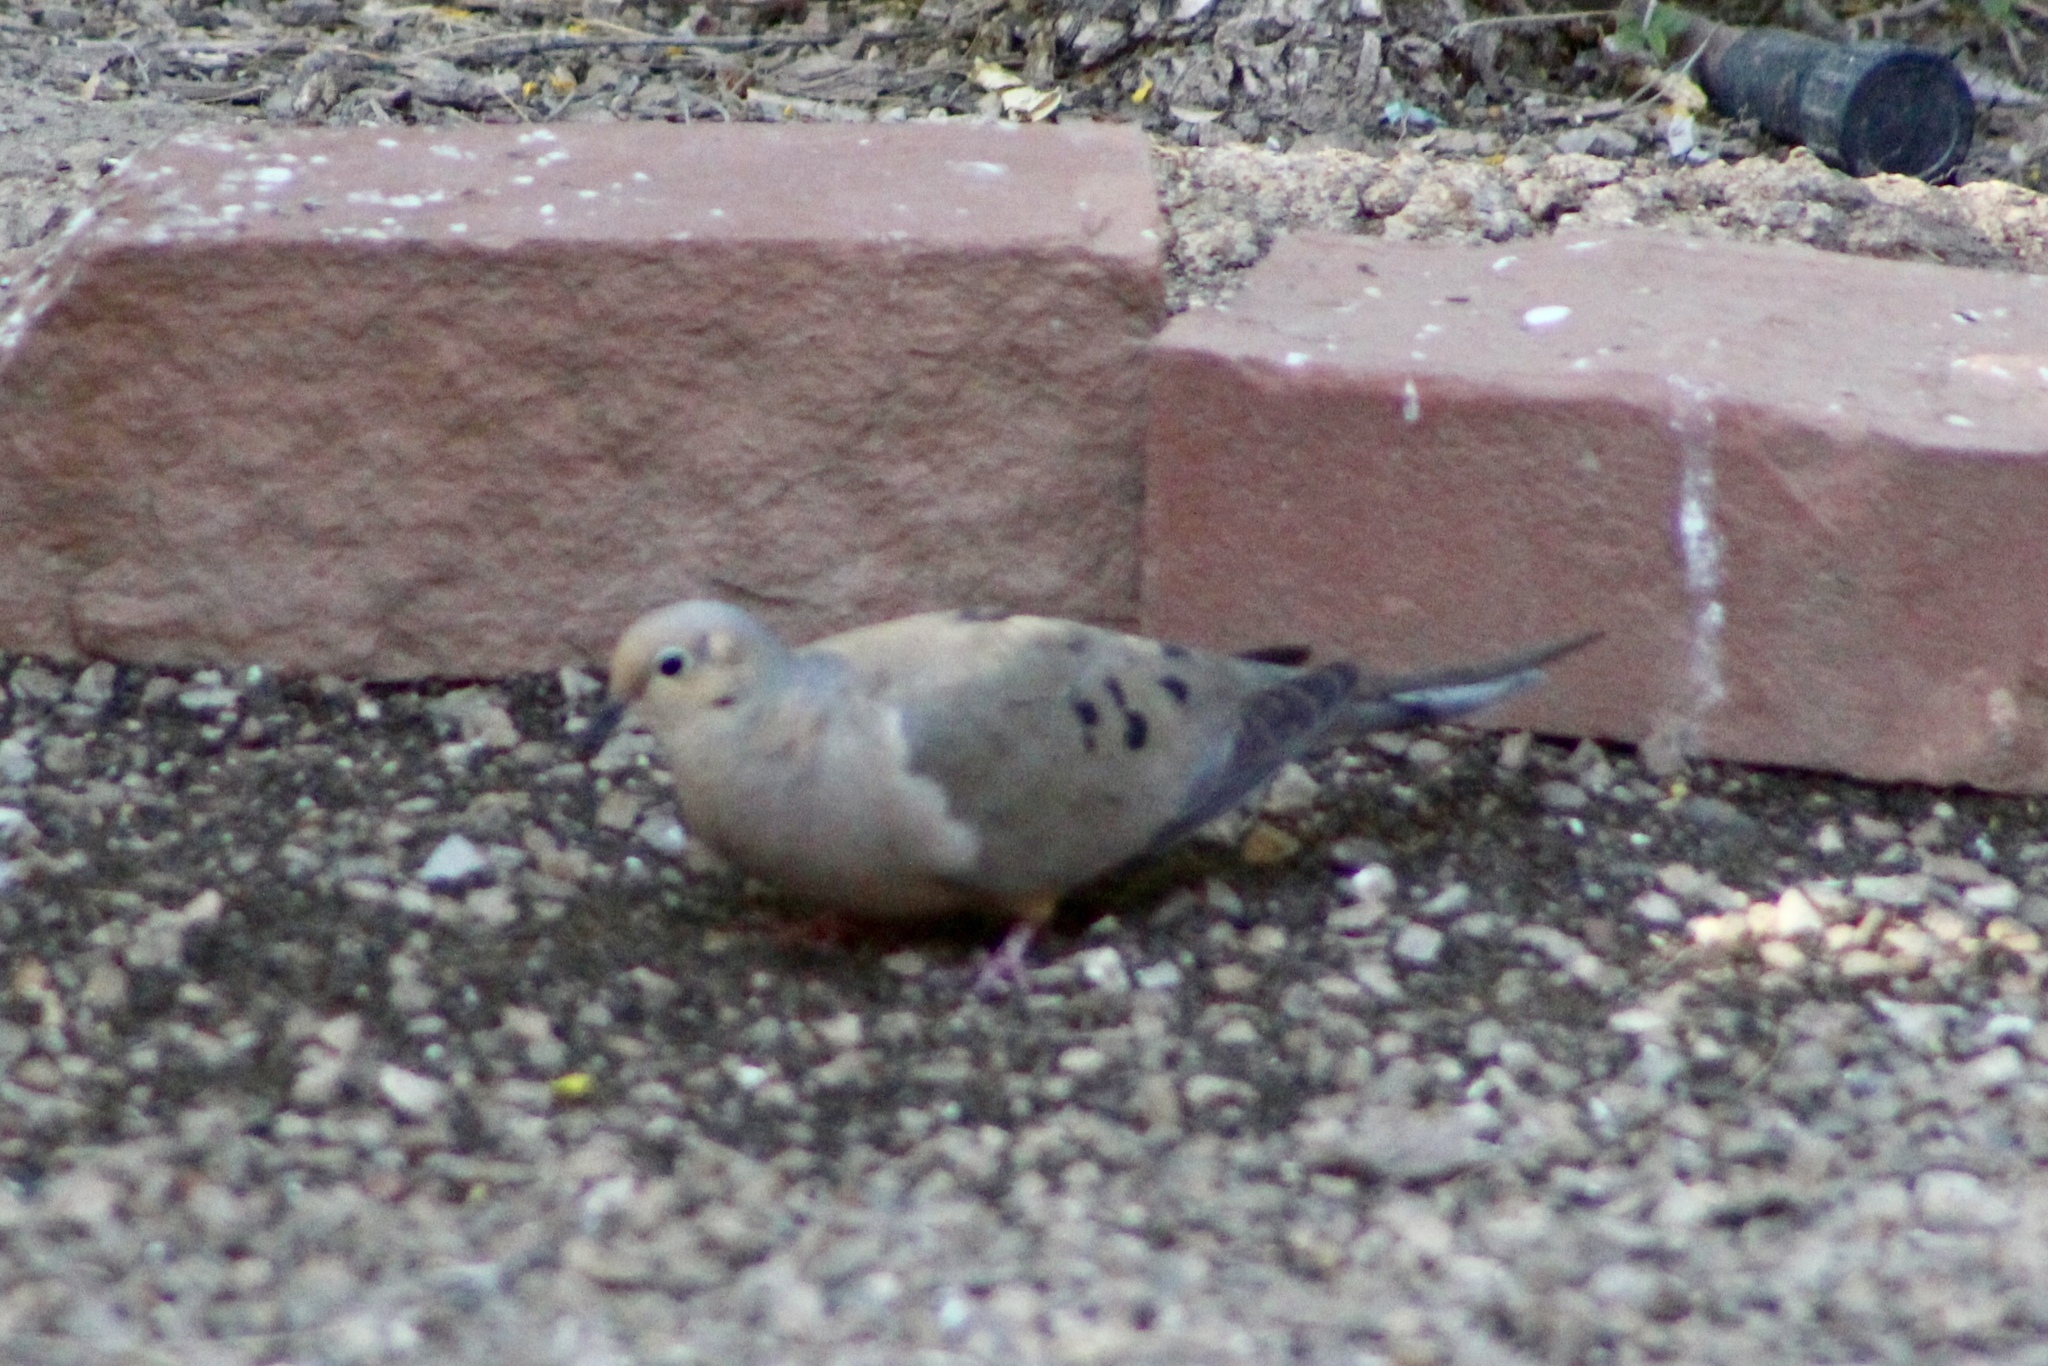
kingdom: Animalia
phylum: Chordata
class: Aves
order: Columbiformes
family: Columbidae
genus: Zenaida
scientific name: Zenaida macroura
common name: Mourning dove
